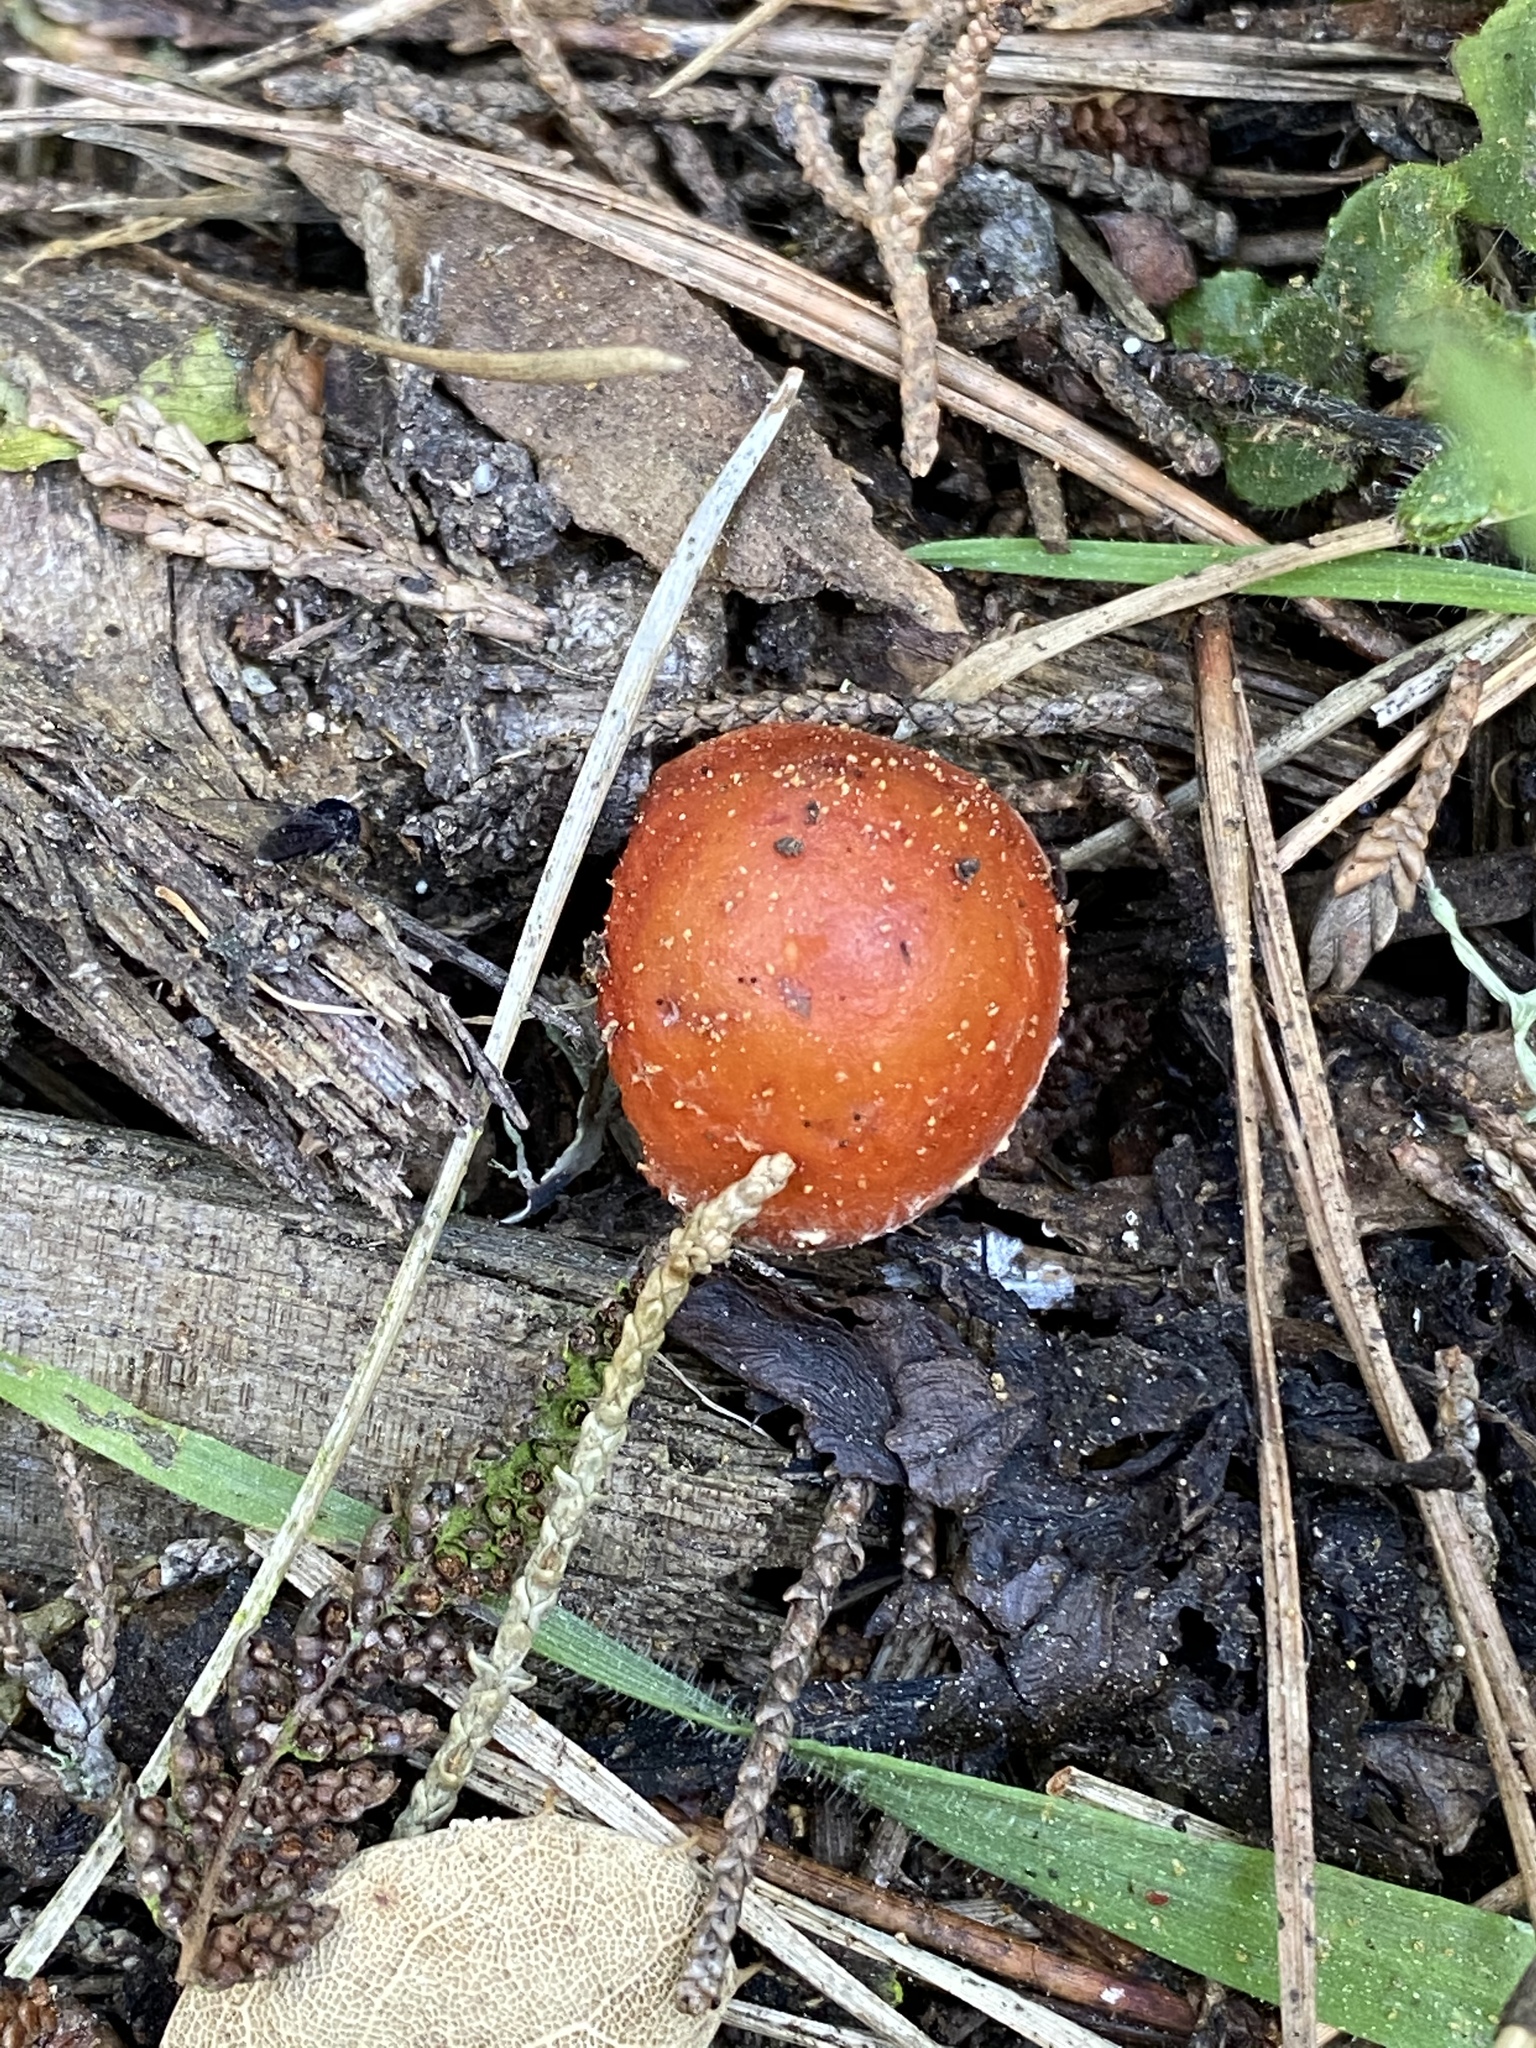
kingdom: Fungi
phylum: Basidiomycota
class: Agaricomycetes
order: Agaricales
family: Strophariaceae
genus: Leratiomyces
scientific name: Leratiomyces ceres
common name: Redlead roundhead
